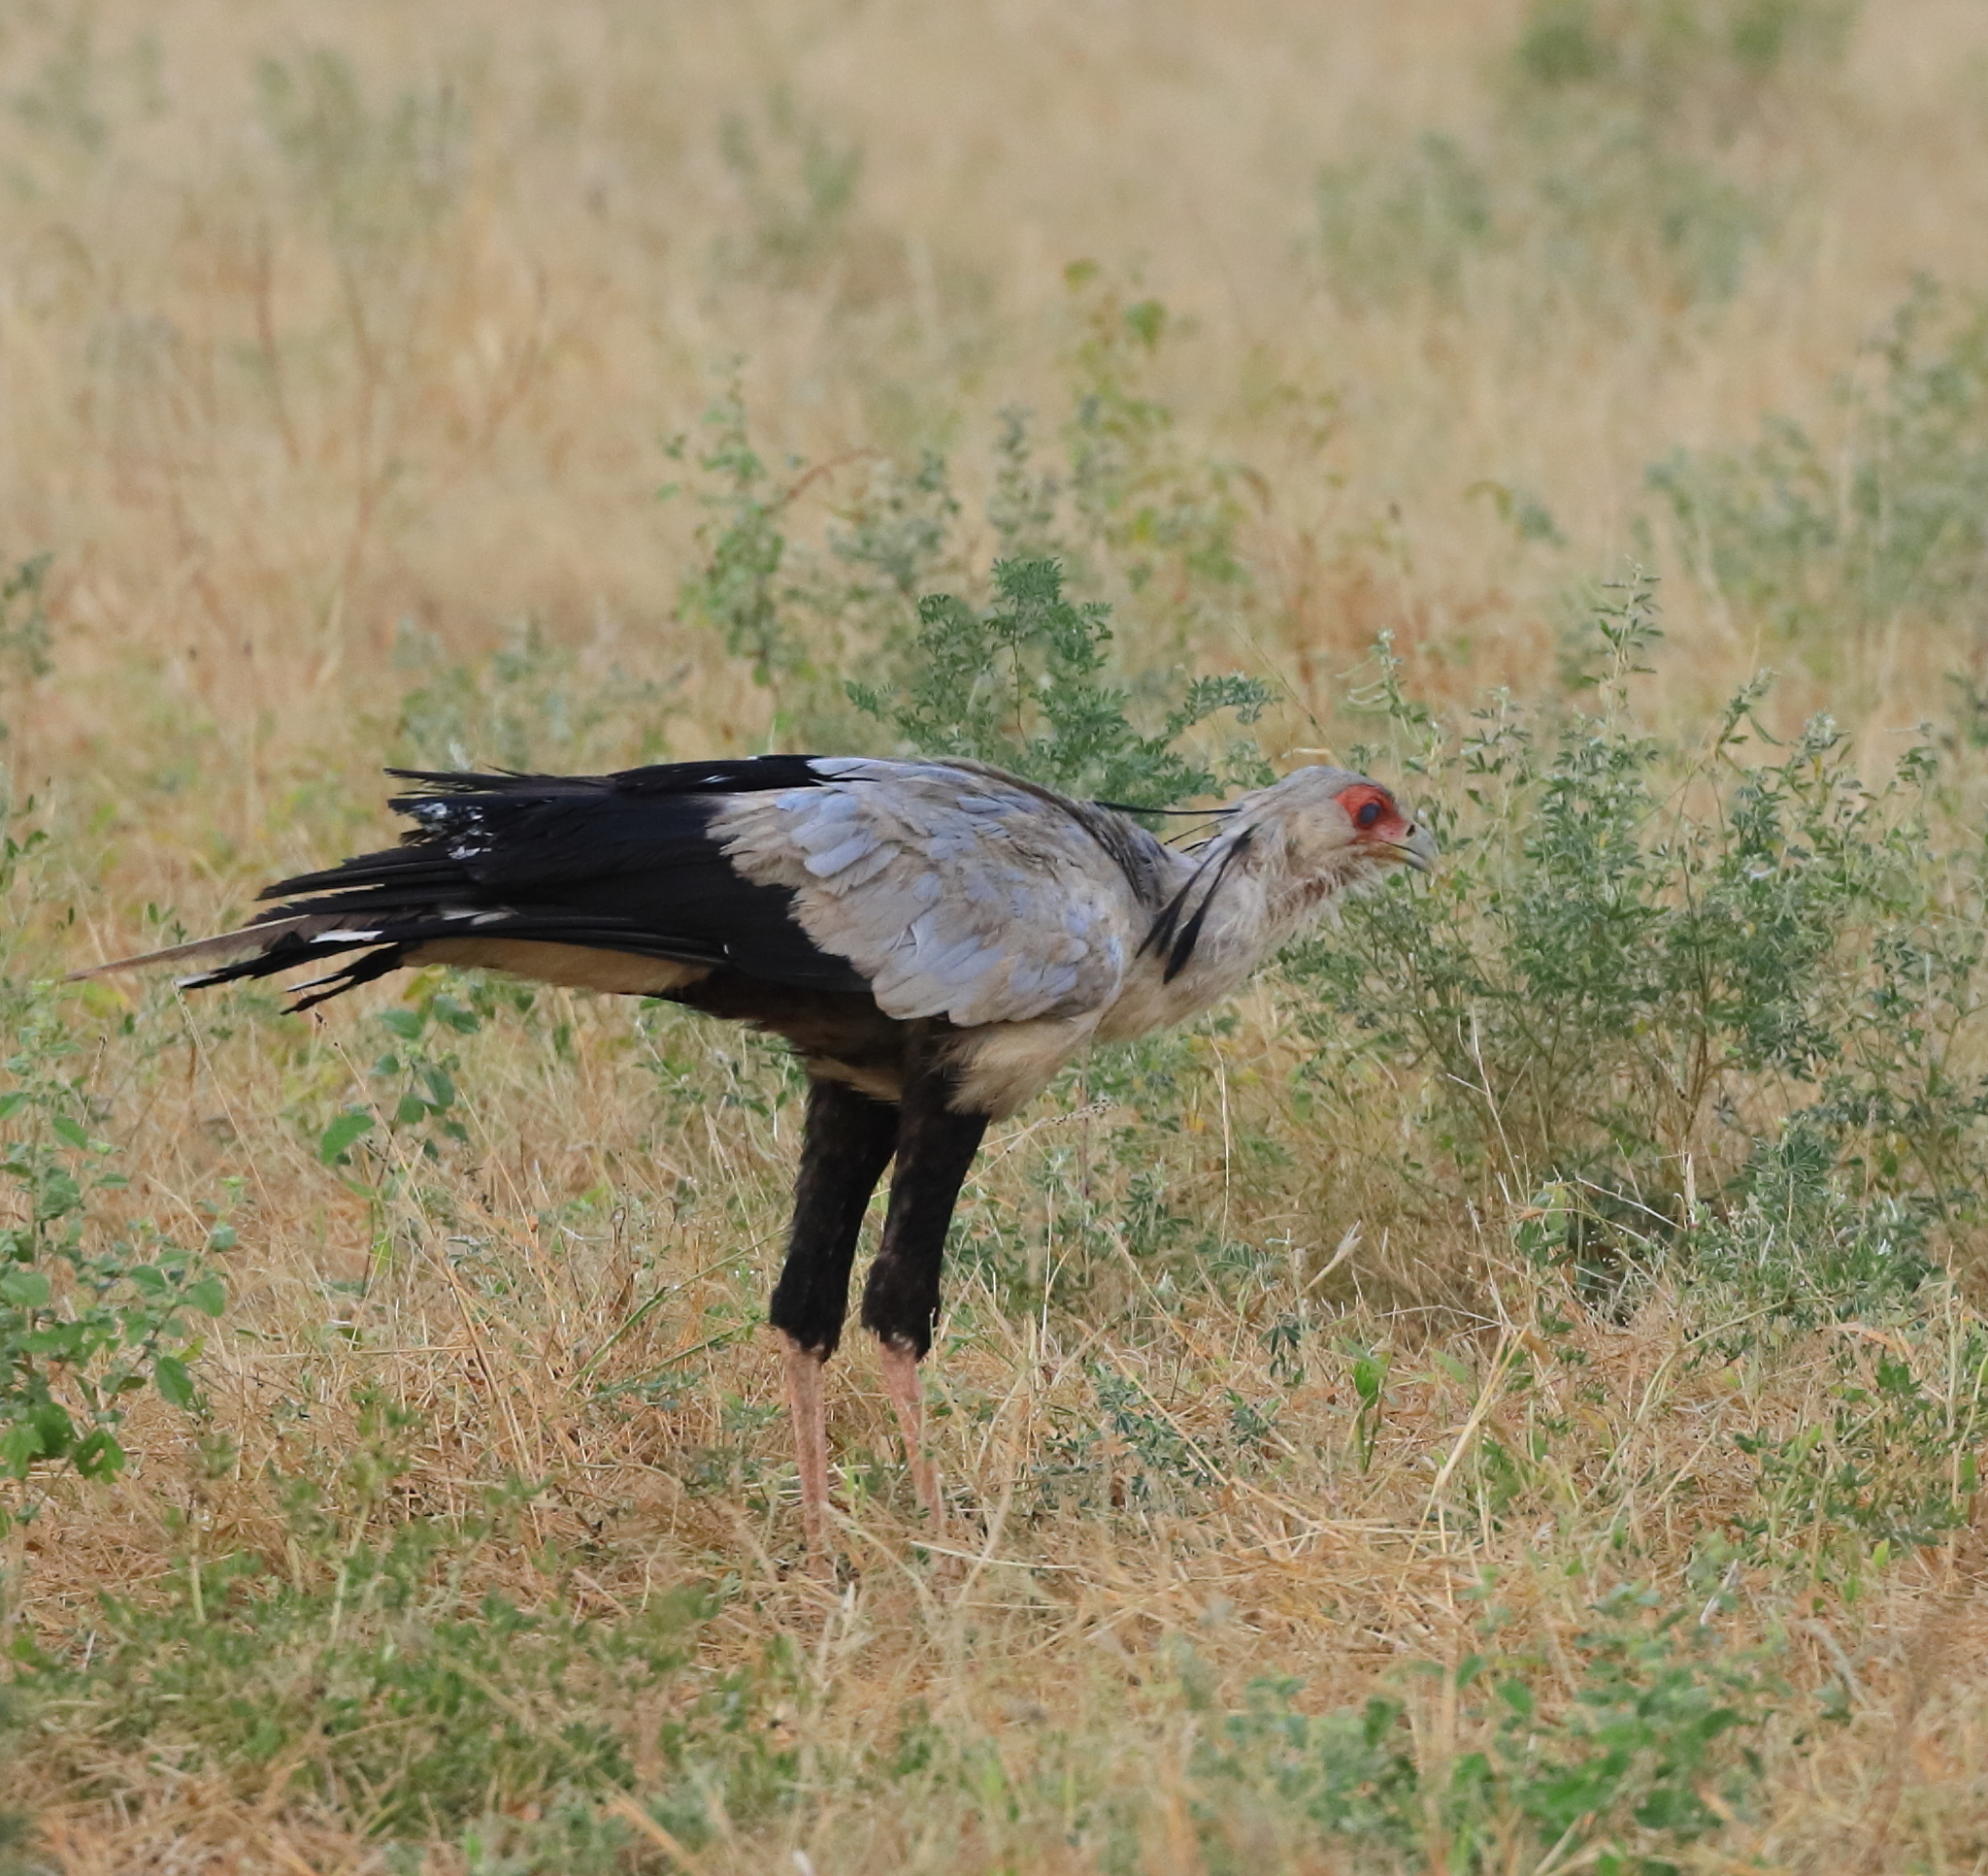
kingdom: Animalia
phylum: Chordata
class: Aves
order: Accipitriformes
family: Sagittariidae
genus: Sagittarius
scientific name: Sagittarius serpentarius
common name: Secretarybird
